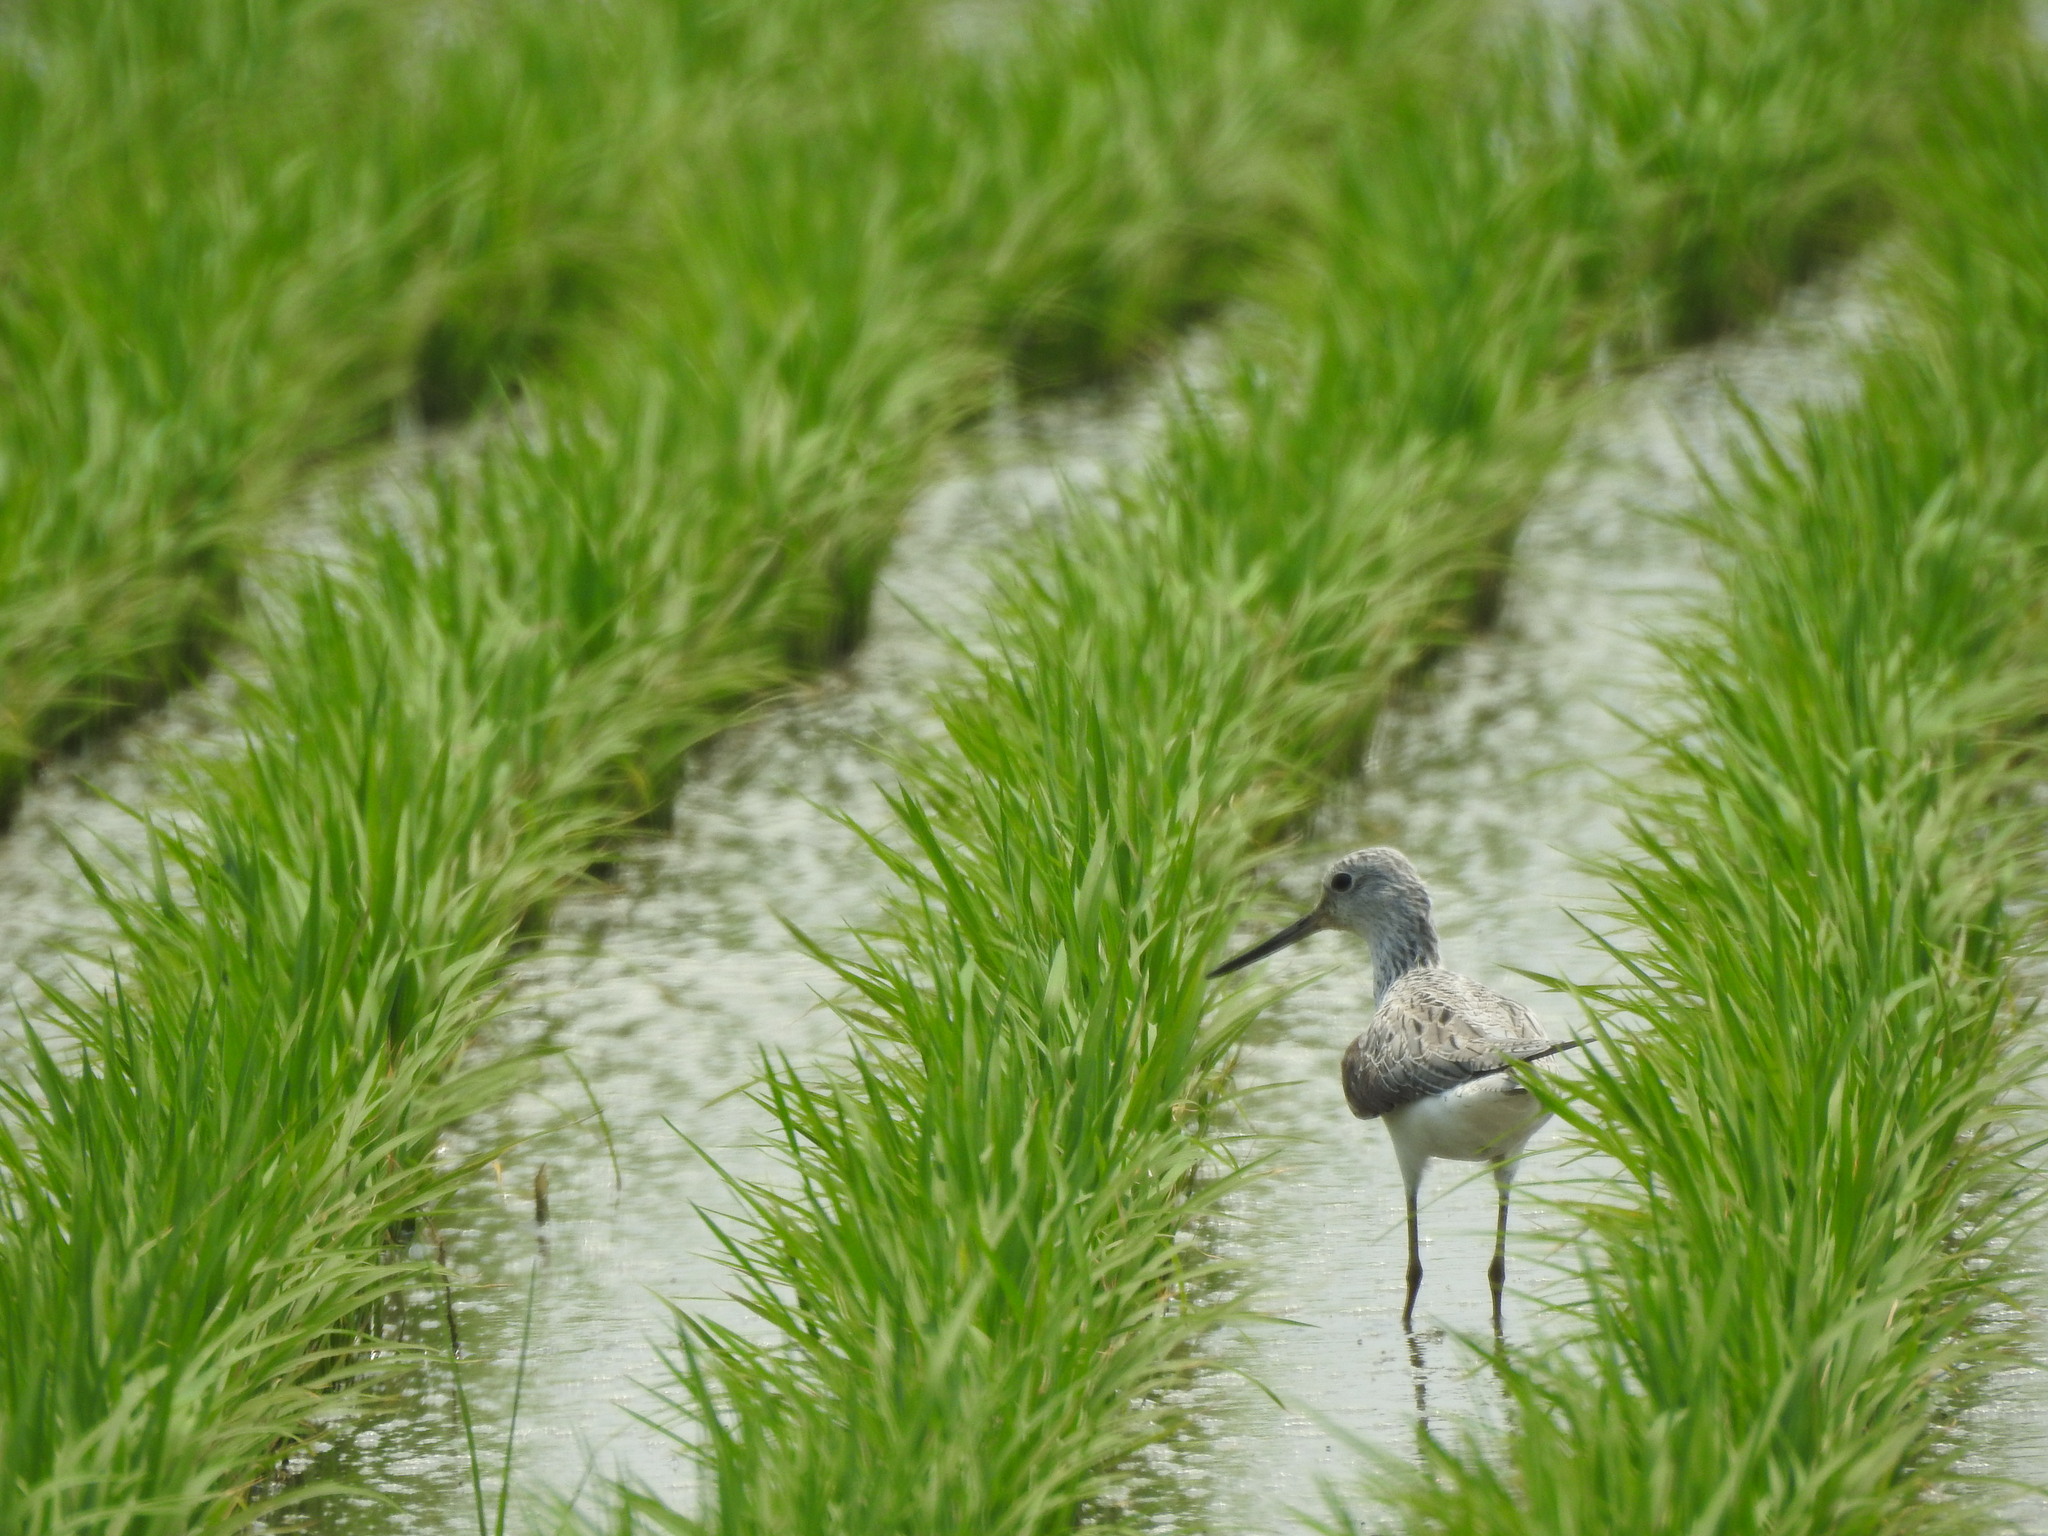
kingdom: Animalia
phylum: Chordata
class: Aves
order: Charadriiformes
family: Scolopacidae
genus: Tringa
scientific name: Tringa nebularia
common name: Common greenshank
